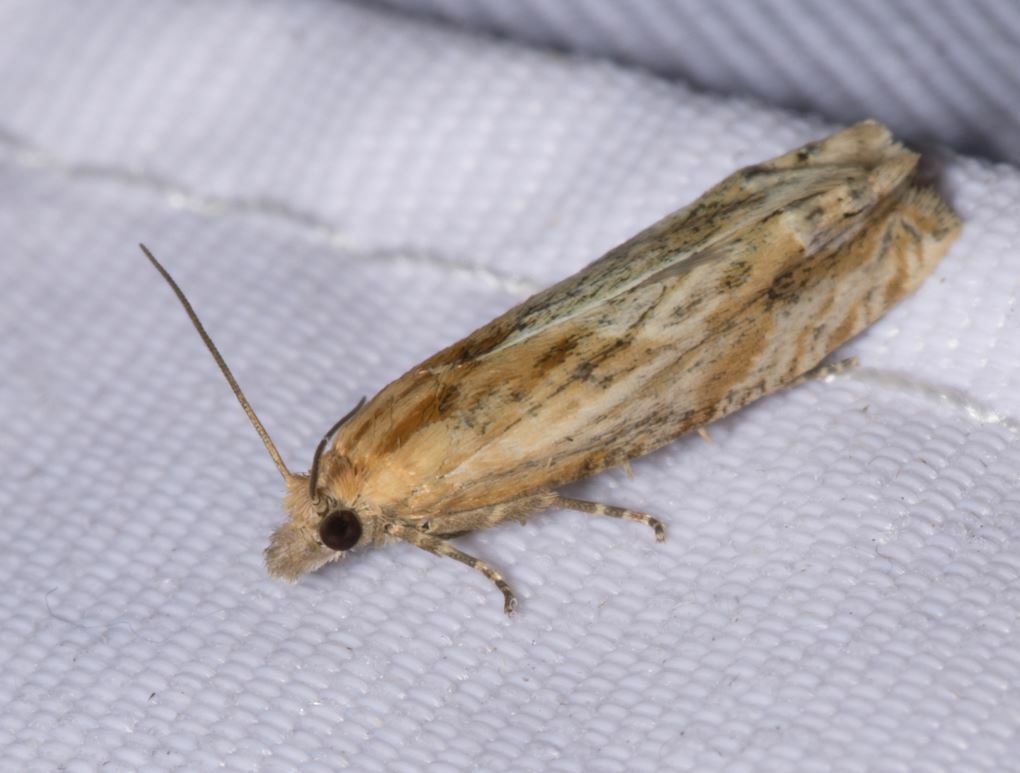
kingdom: Animalia
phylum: Arthropoda
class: Insecta
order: Lepidoptera
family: Tortricidae
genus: Eucosma
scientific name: Eucosma cana
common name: Hoary belle
